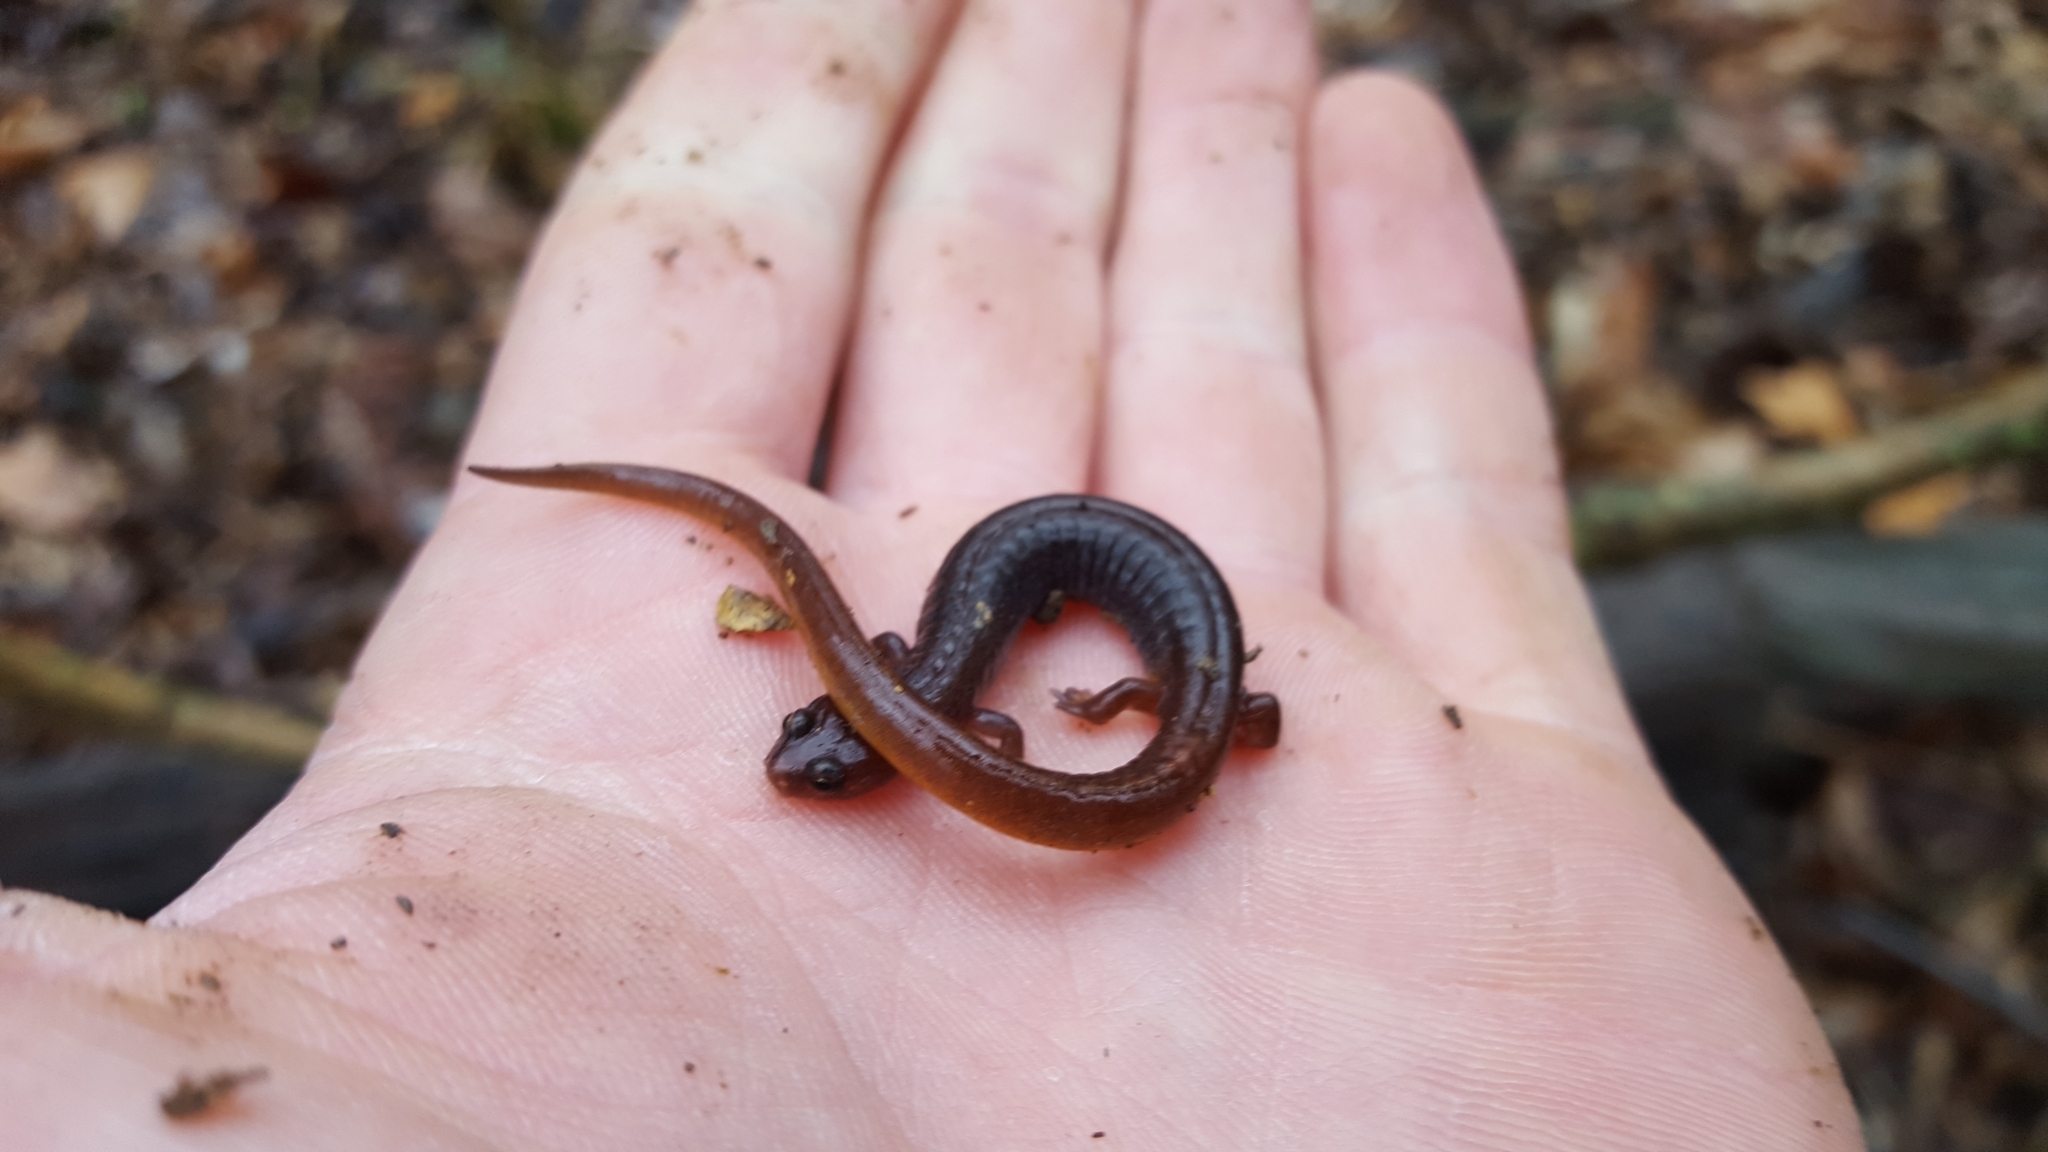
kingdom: Animalia
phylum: Chordata
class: Amphibia
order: Caudata
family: Plethodontidae
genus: Eurycea
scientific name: Eurycea multiplicata
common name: Many-ribbed salamander
